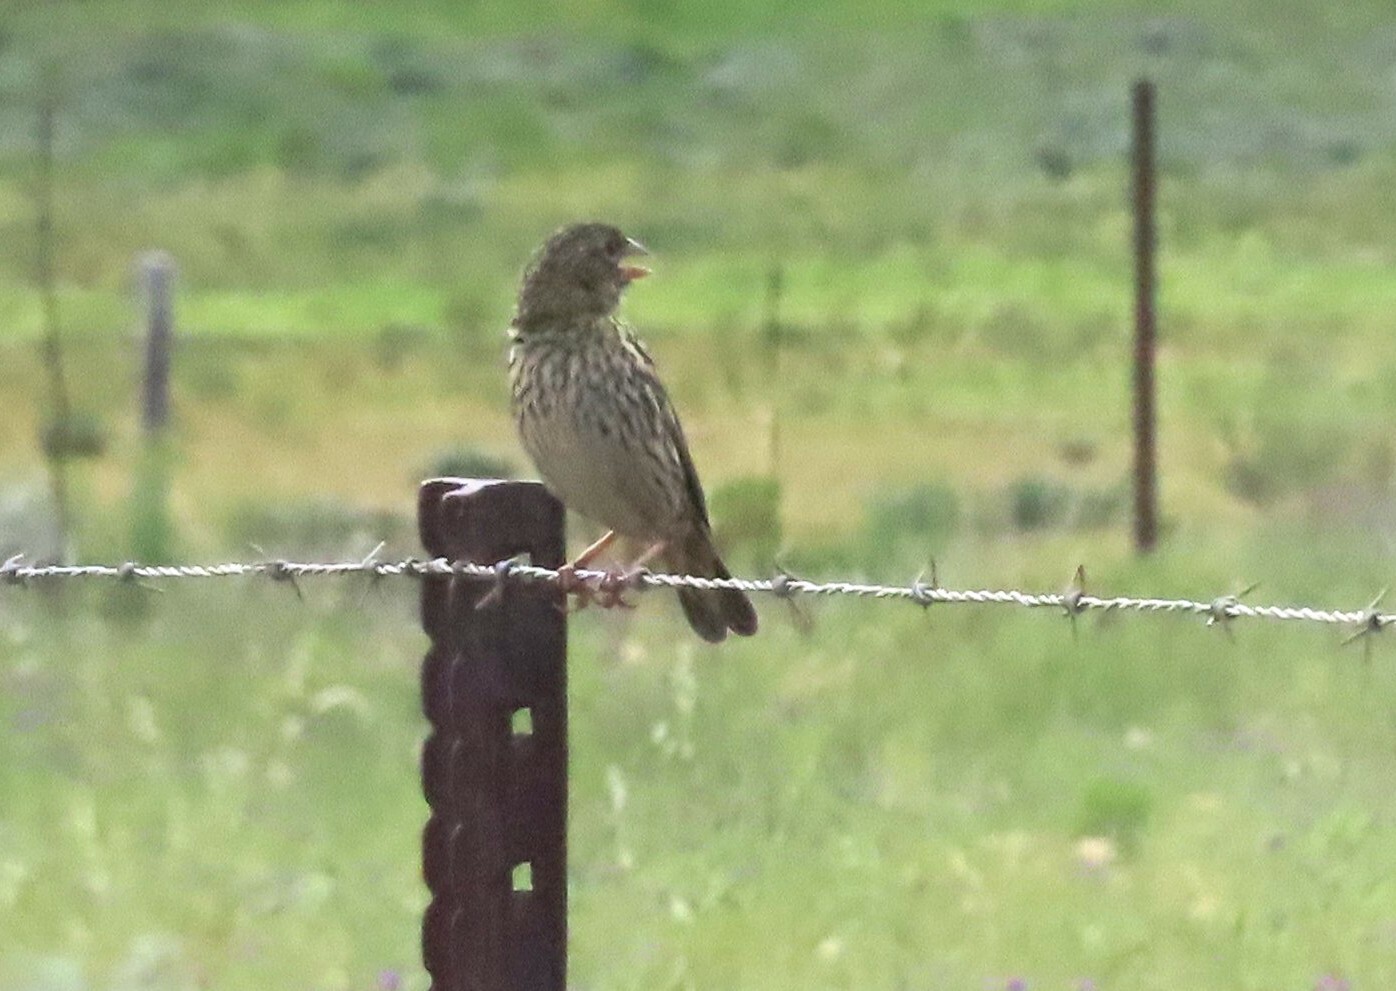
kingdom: Animalia
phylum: Chordata
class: Aves
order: Passeriformes
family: Ploceidae
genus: Euplectes
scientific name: Euplectes capensis
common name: Yellow bishop
